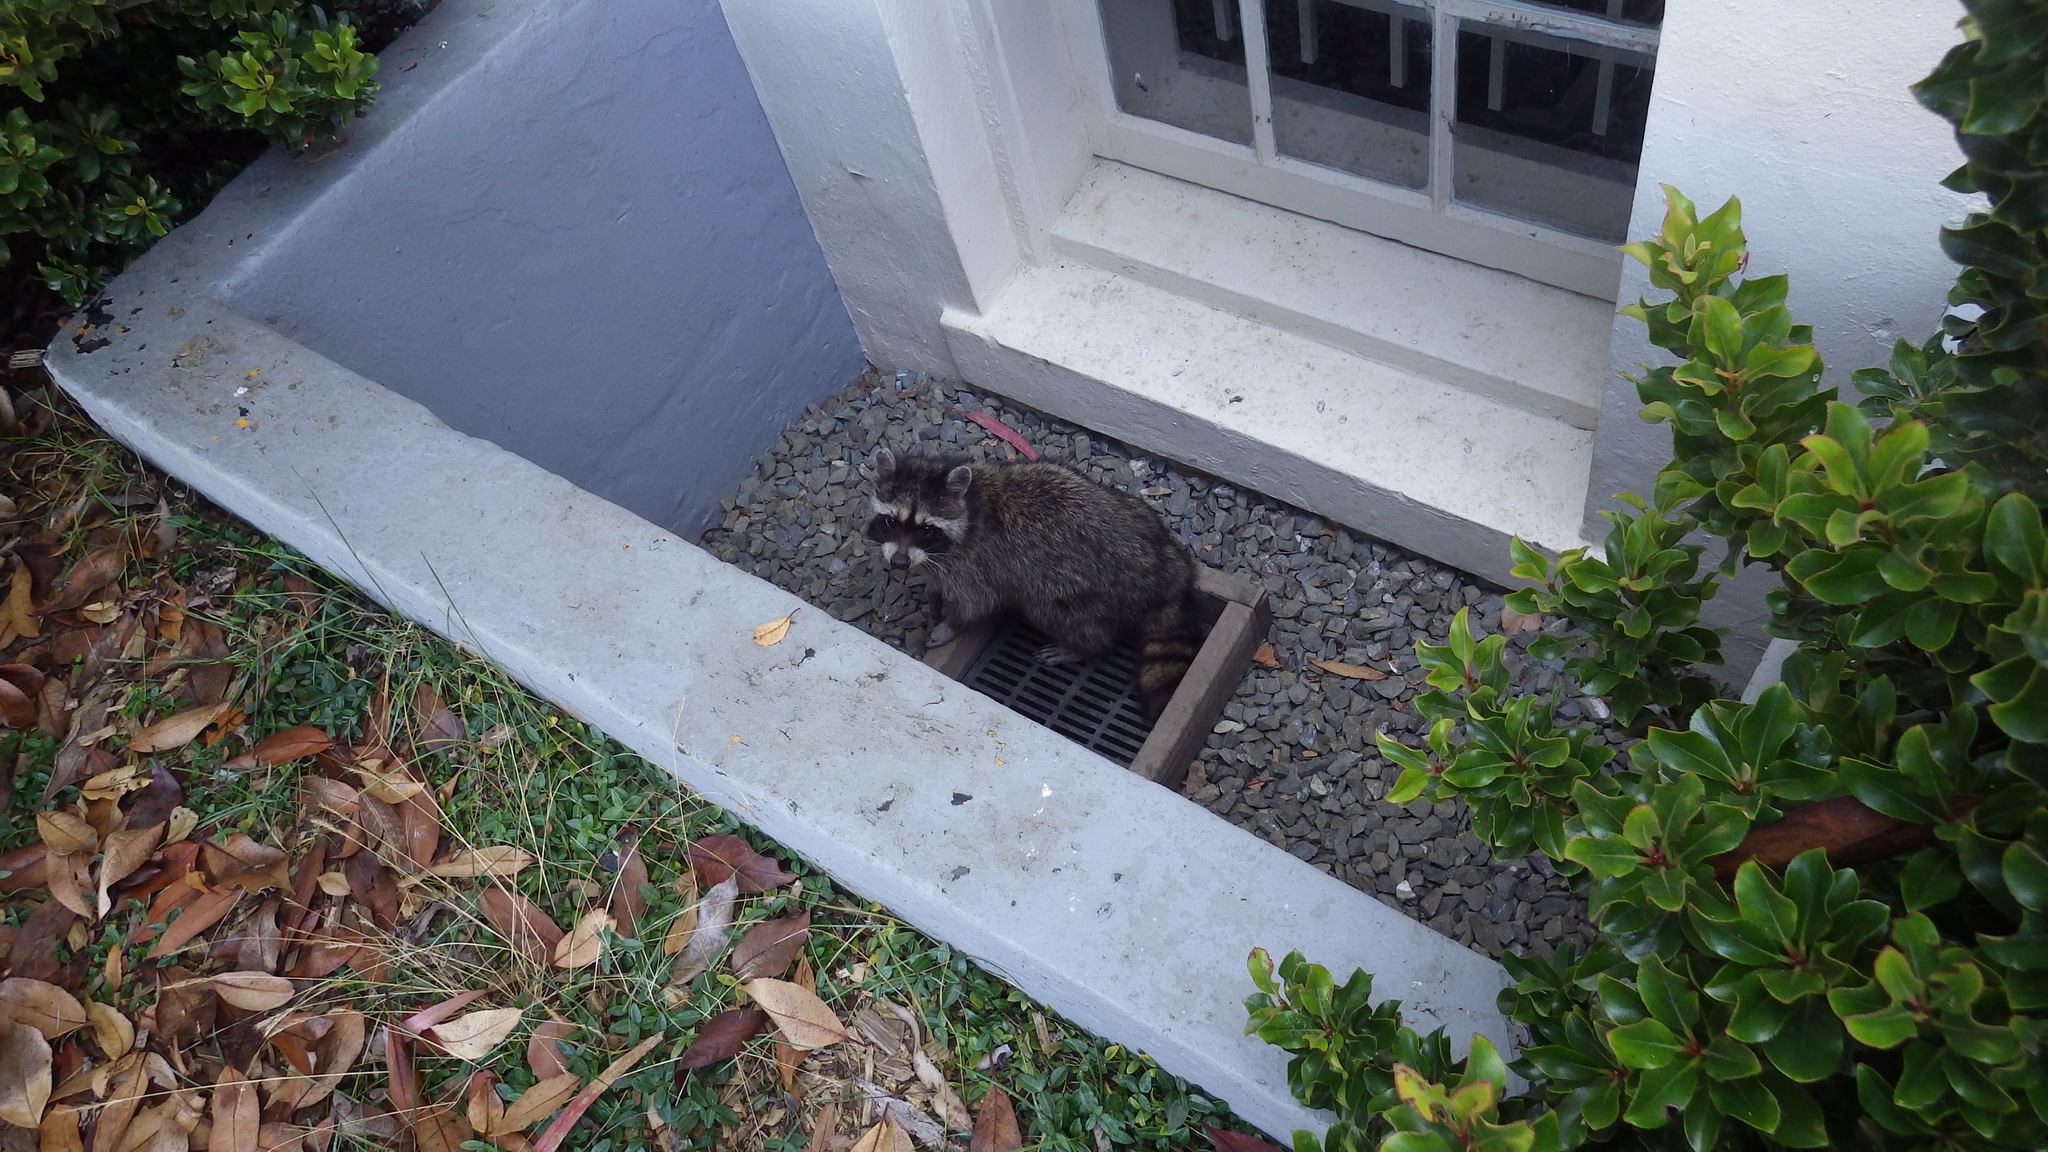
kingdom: Animalia
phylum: Chordata
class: Mammalia
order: Carnivora
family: Procyonidae
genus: Procyon
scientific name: Procyon lotor
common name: Raccoon
